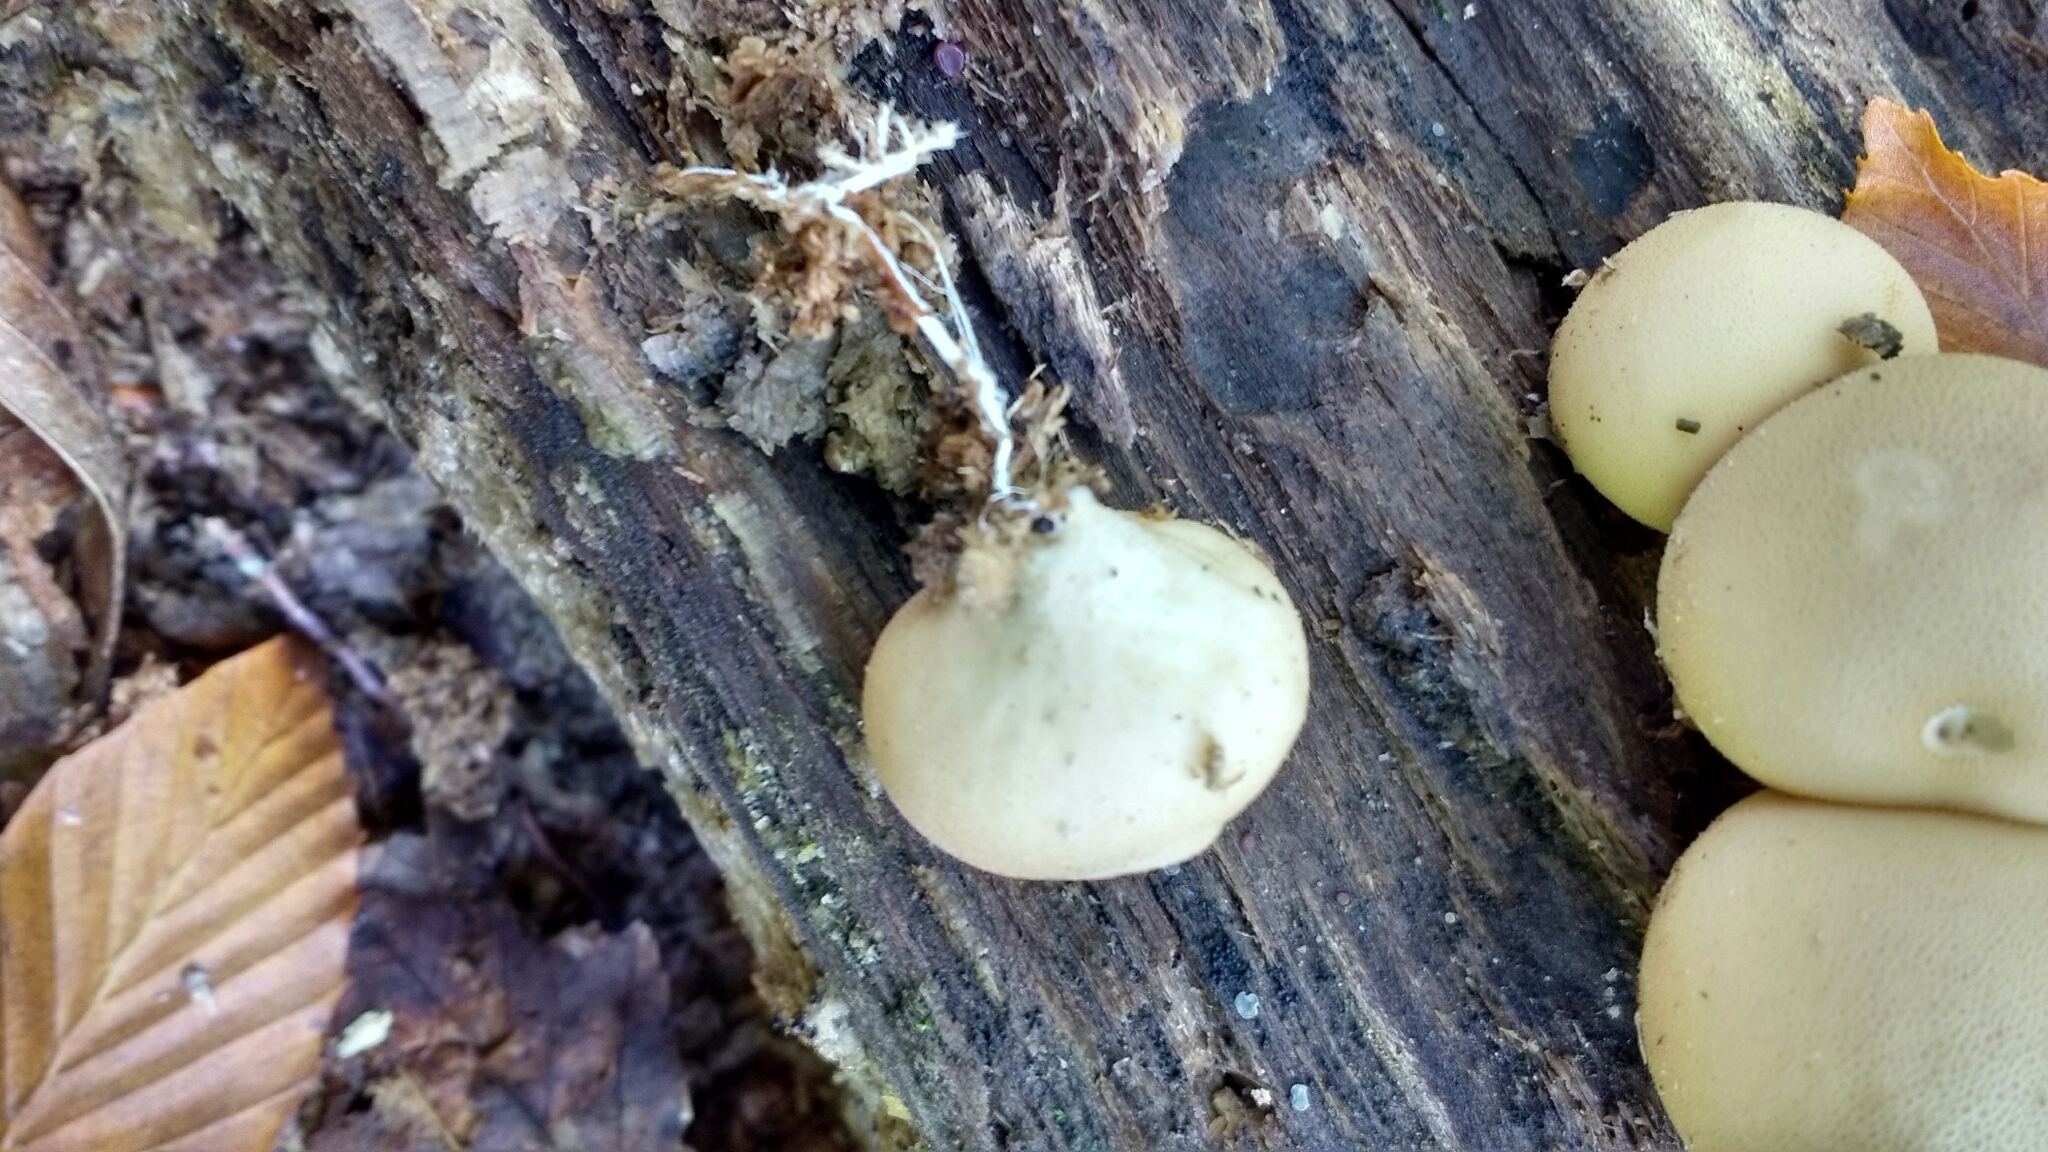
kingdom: Fungi
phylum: Basidiomycota
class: Agaricomycetes
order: Agaricales
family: Lycoperdaceae
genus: Apioperdon
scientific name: Apioperdon pyriforme
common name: Pear-shaped puffball
